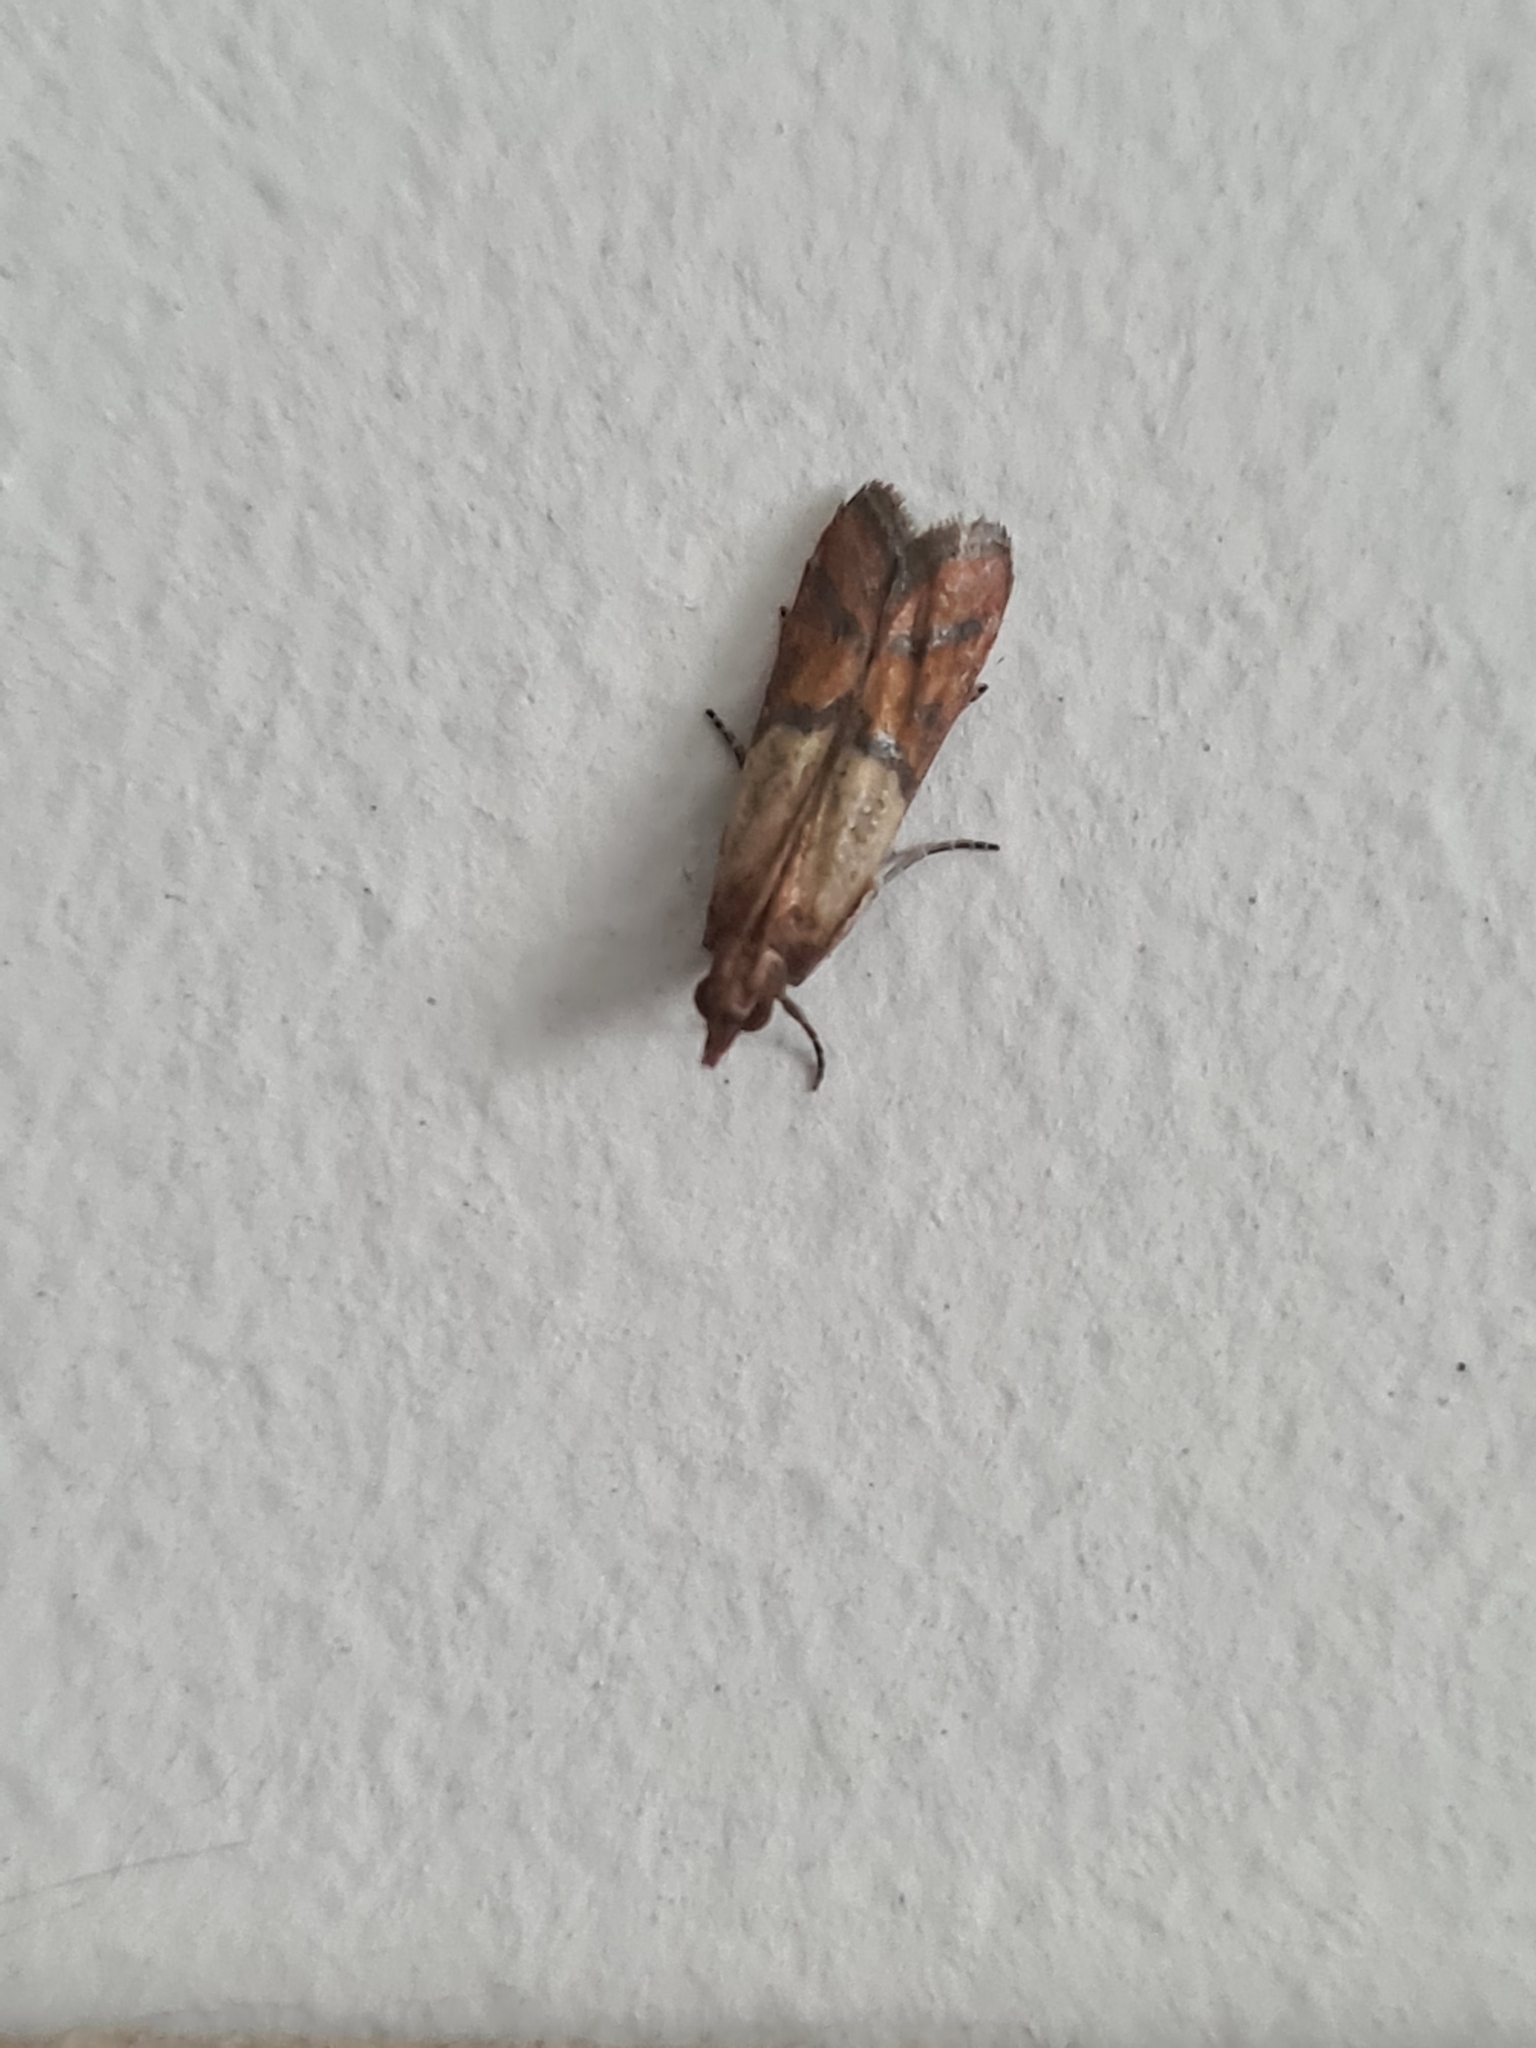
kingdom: Animalia
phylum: Arthropoda
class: Insecta
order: Lepidoptera
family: Pyralidae
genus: Plodia
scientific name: Plodia interpunctella
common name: Indian meal moth
